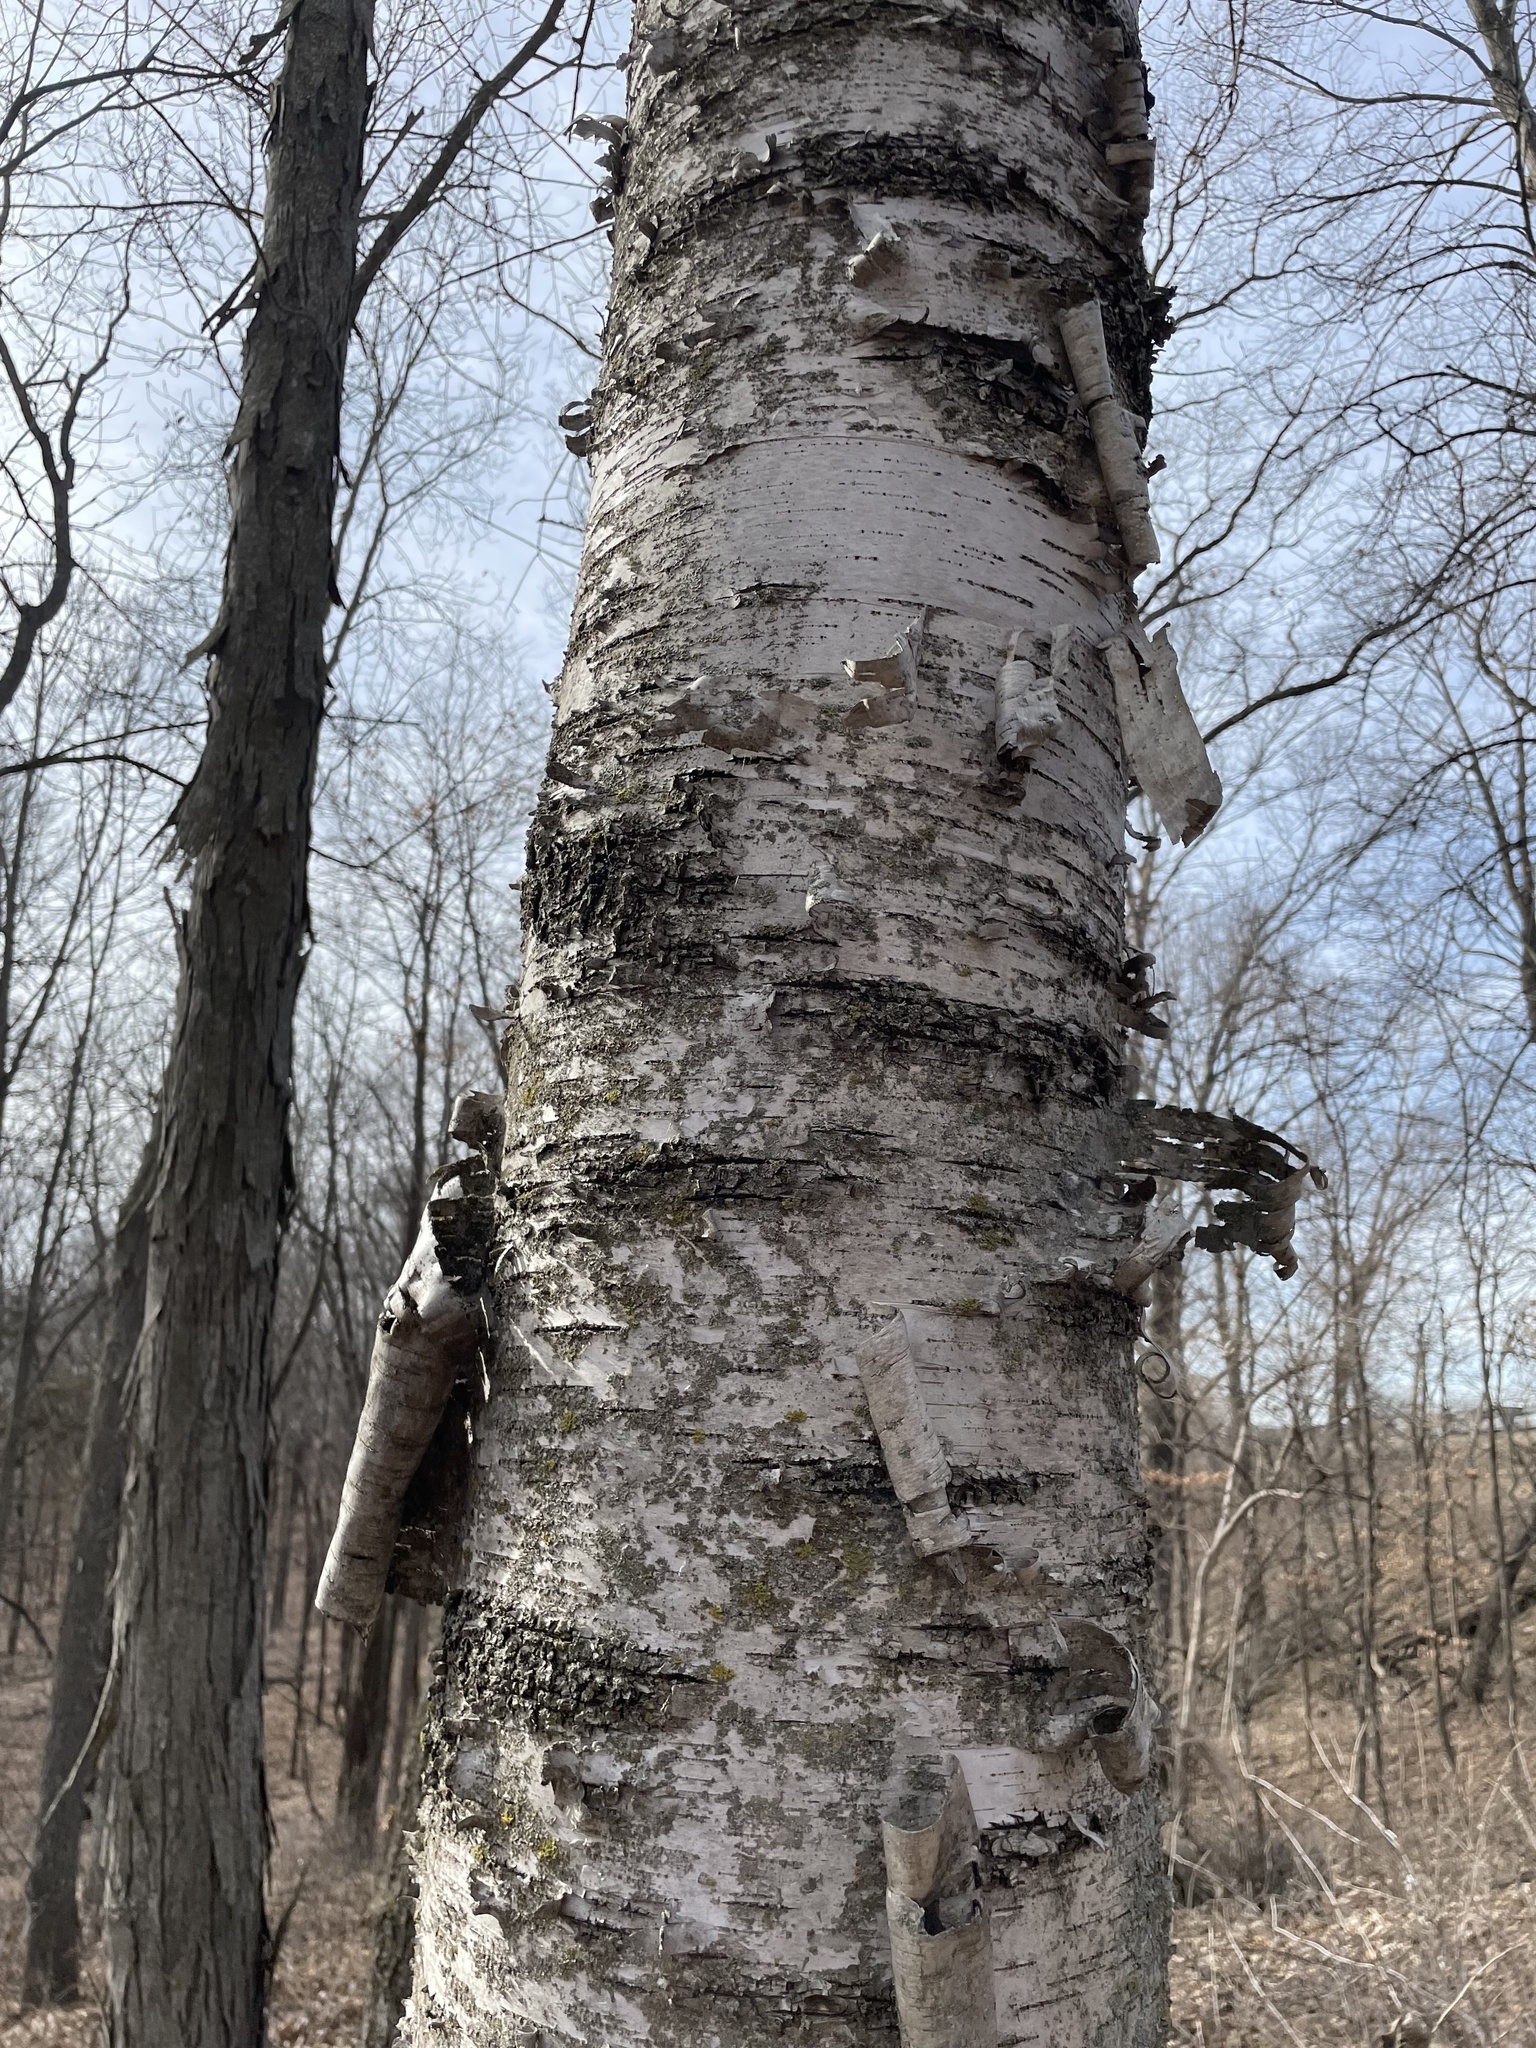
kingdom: Plantae
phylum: Tracheophyta
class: Magnoliopsida
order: Fagales
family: Betulaceae
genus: Betula
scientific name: Betula papyrifera
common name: Paper birch
